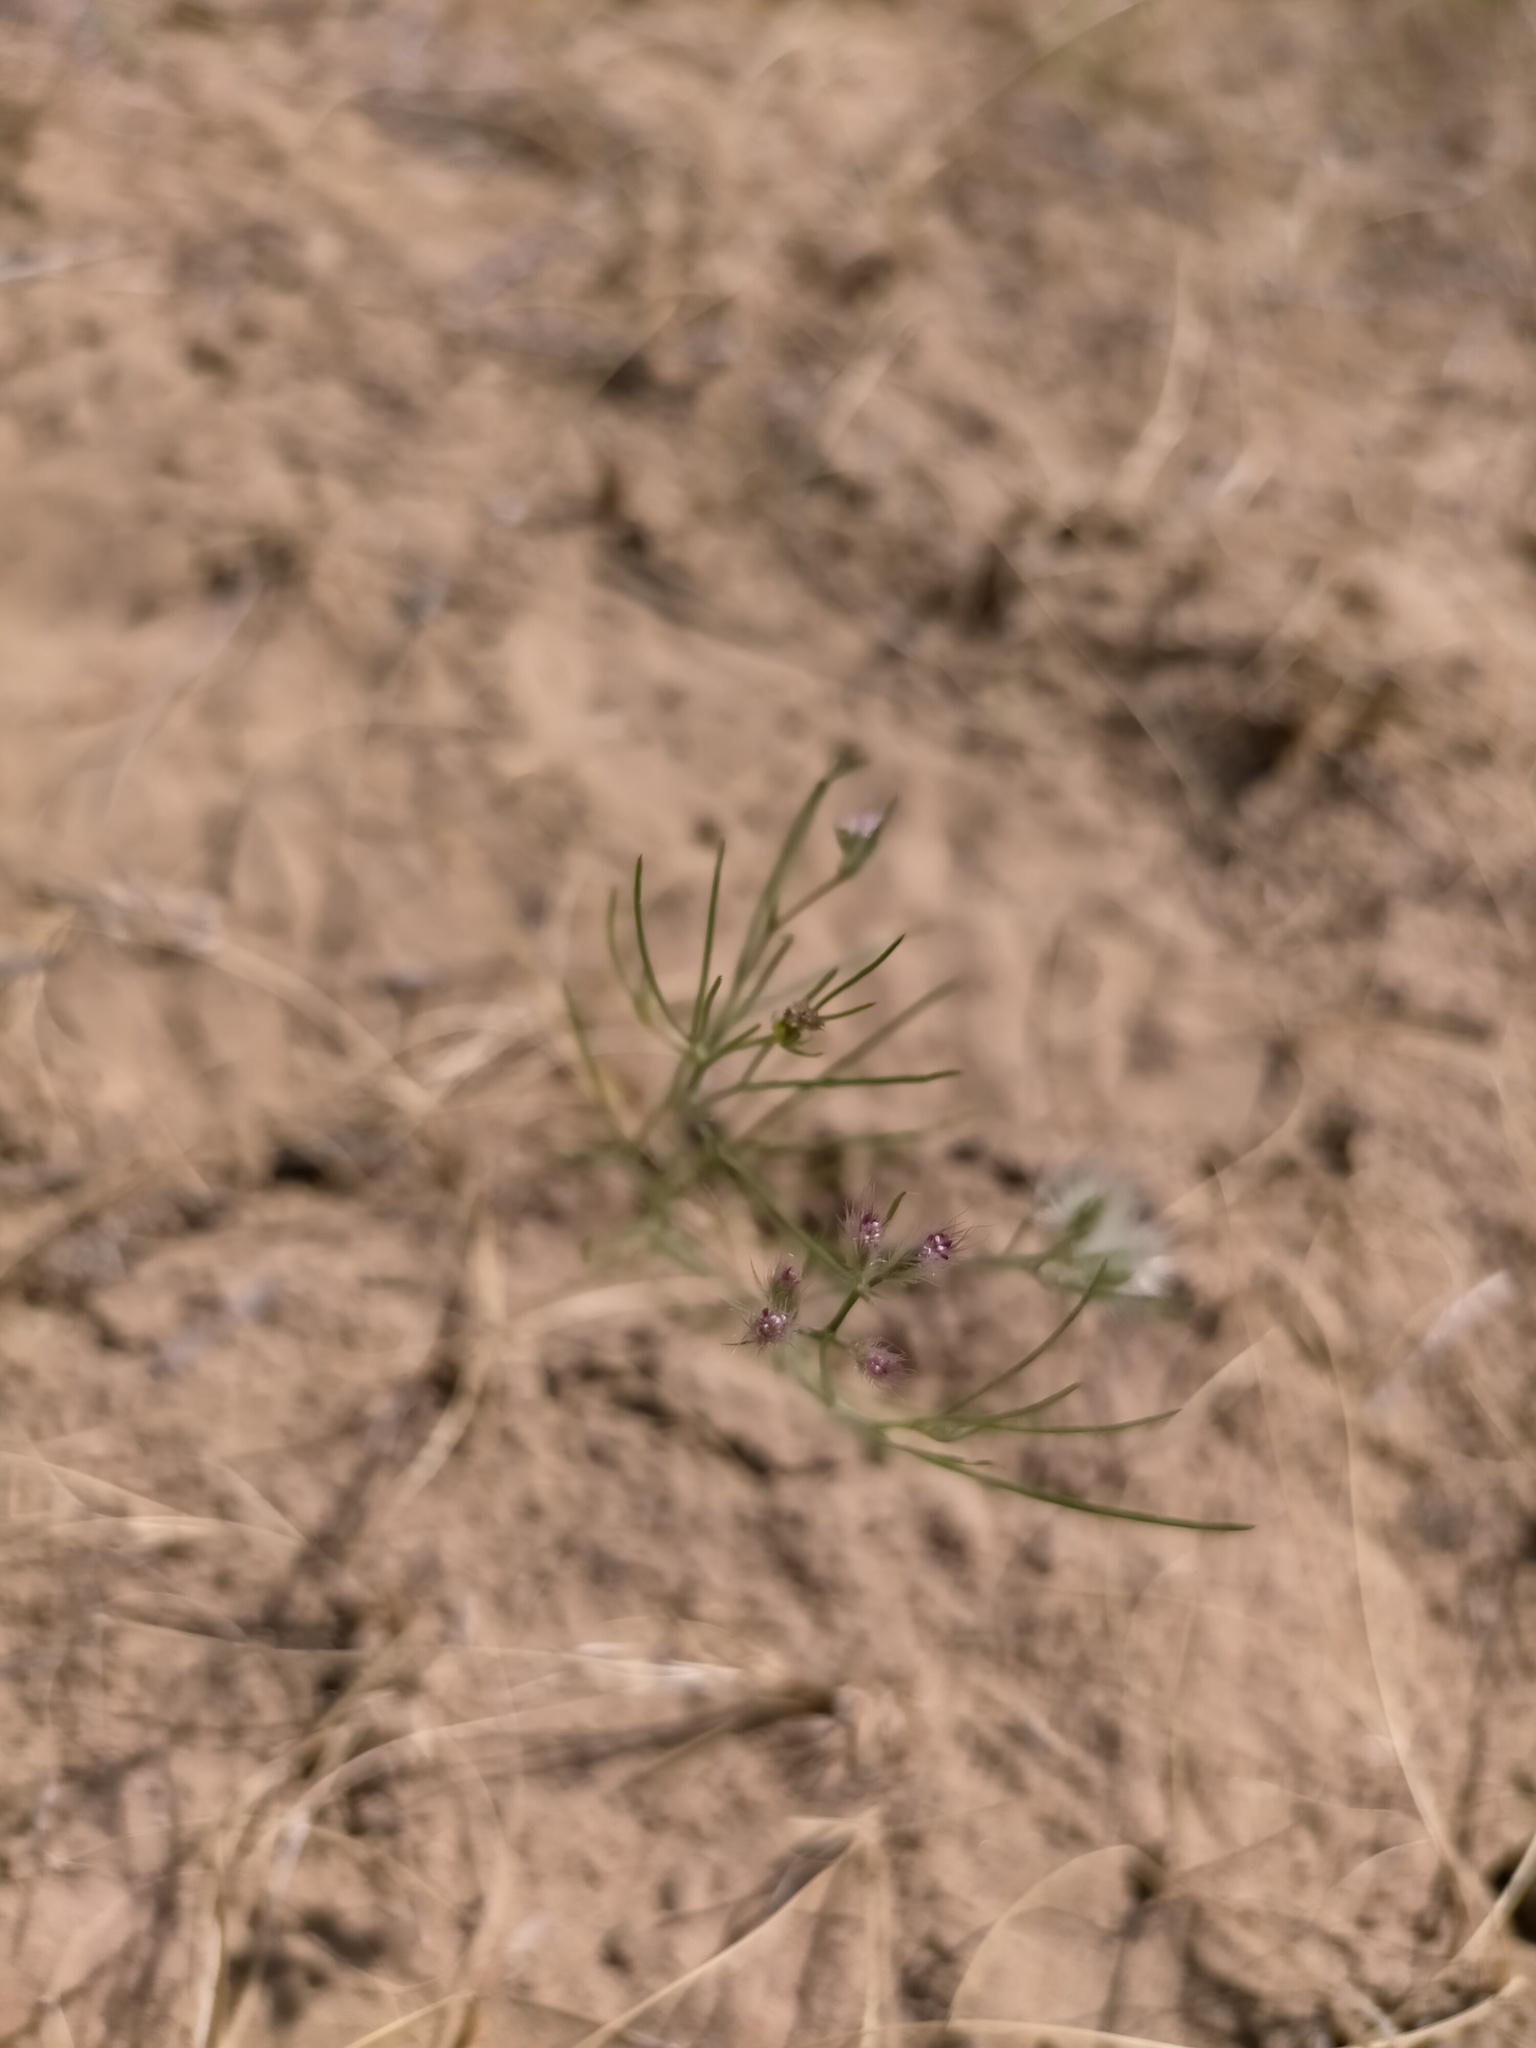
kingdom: Plantae
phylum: Tracheophyta
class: Magnoliopsida
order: Apiales
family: Apiaceae
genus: Cuminum
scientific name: Cuminum setifolium
